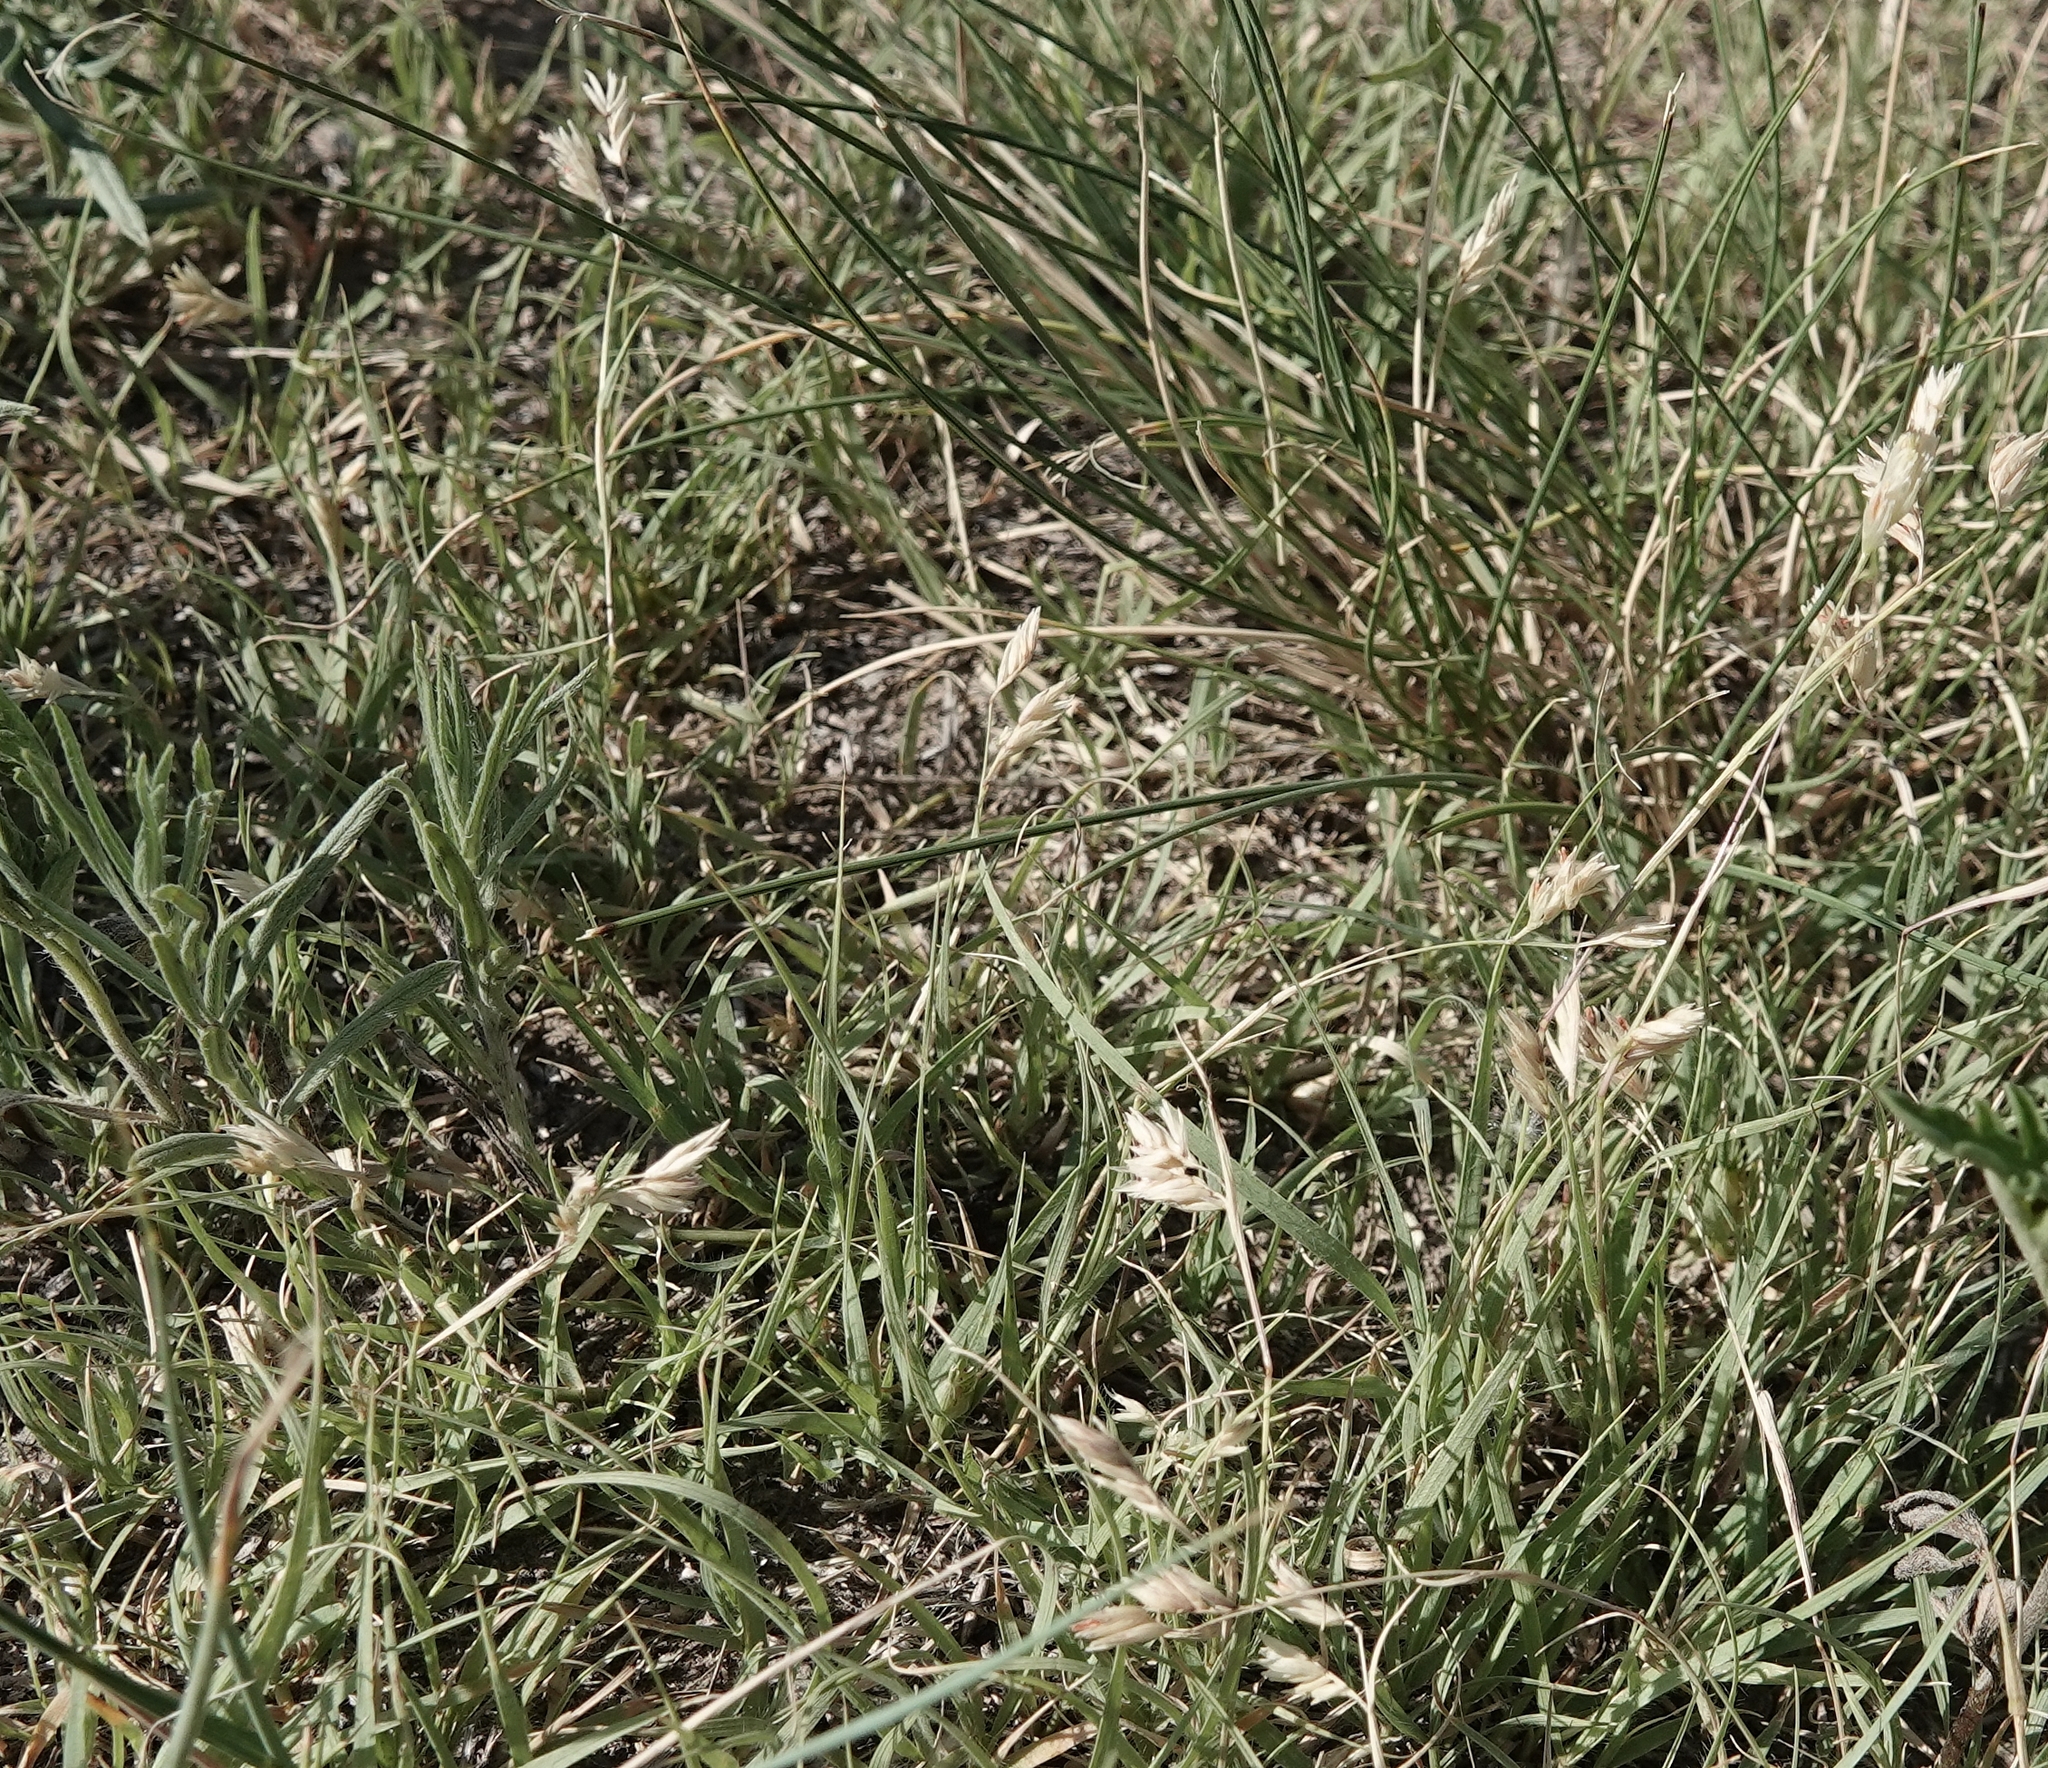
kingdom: Plantae
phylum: Tracheophyta
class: Liliopsida
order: Poales
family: Poaceae
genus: Bouteloua
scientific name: Bouteloua dactyloides
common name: Buffalo grass
